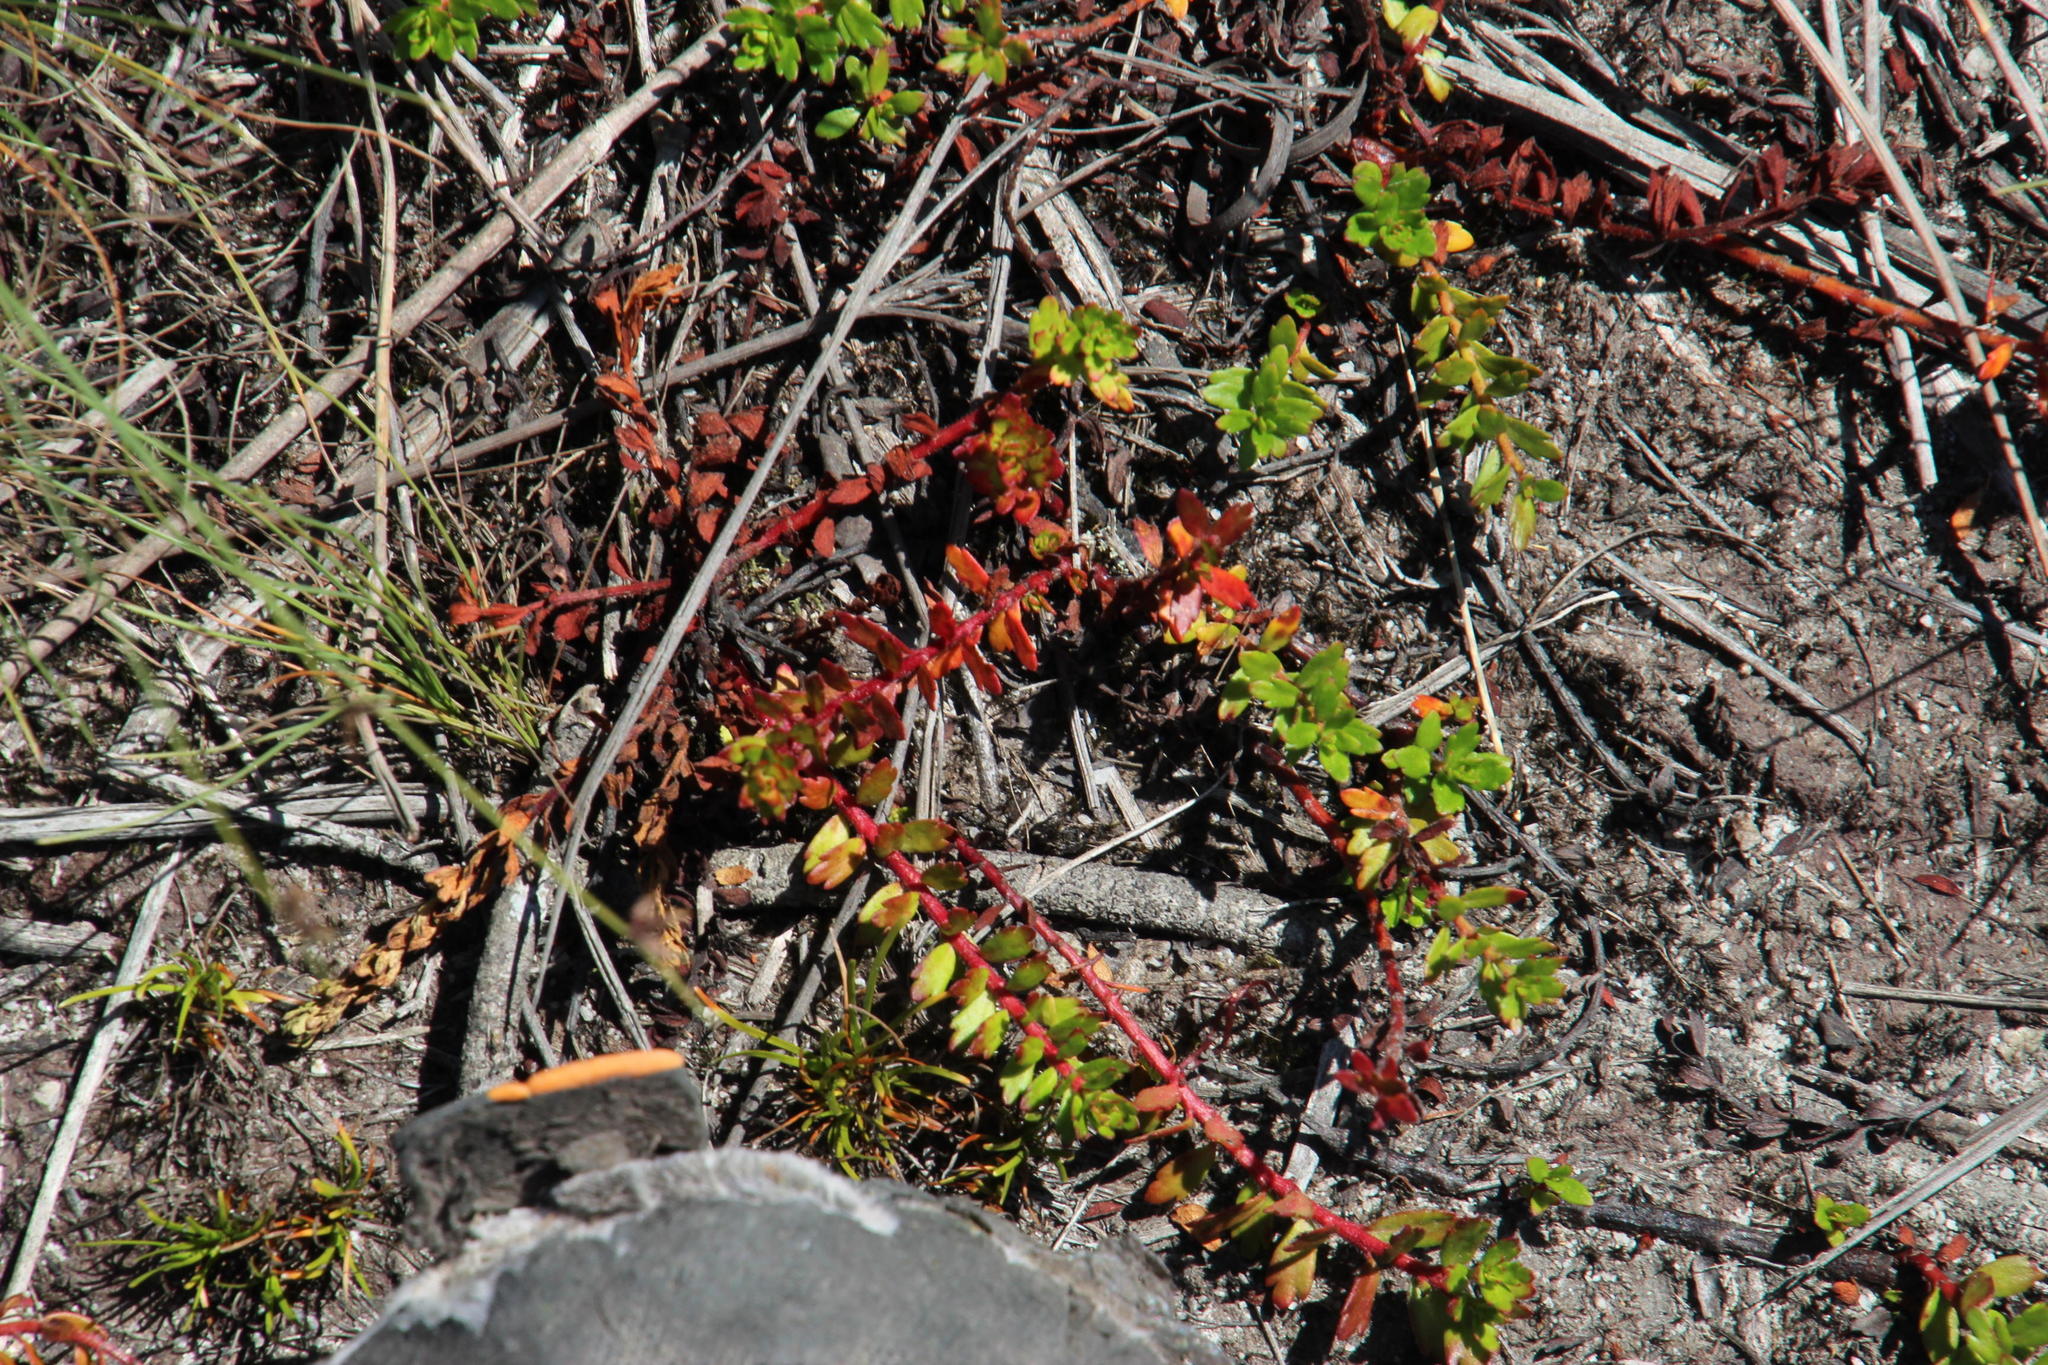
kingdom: Plantae
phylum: Tracheophyta
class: Magnoliopsida
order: Saxifragales
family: Haloragaceae
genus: Laurembergia
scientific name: Laurembergia repens
